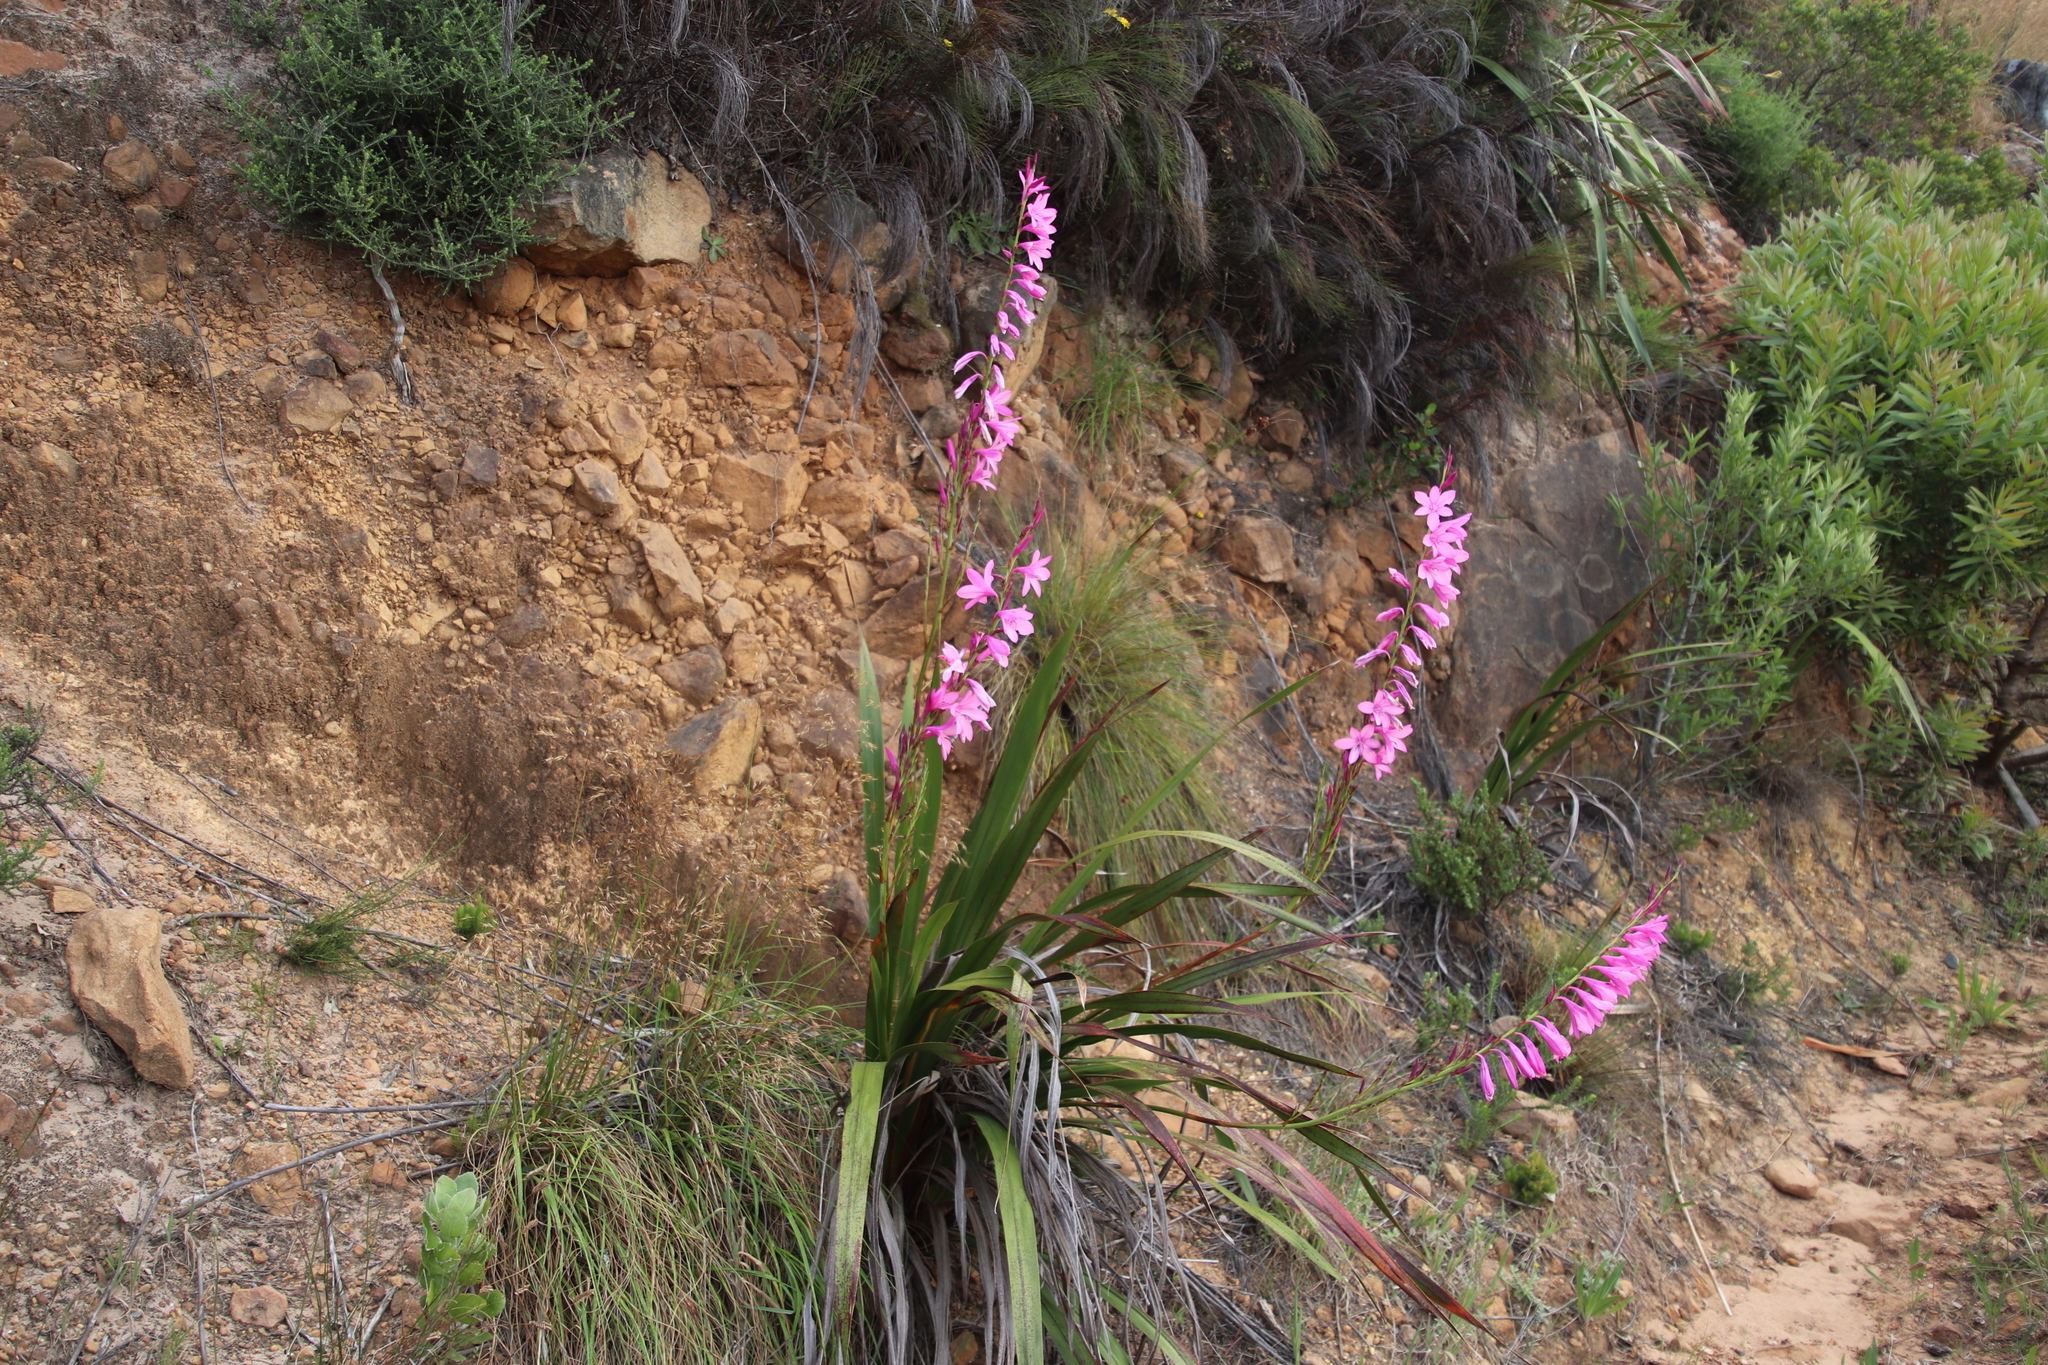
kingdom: Plantae
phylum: Tracheophyta
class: Liliopsida
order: Asparagales
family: Iridaceae
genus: Watsonia
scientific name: Watsonia borbonica
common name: Bugle-lily
